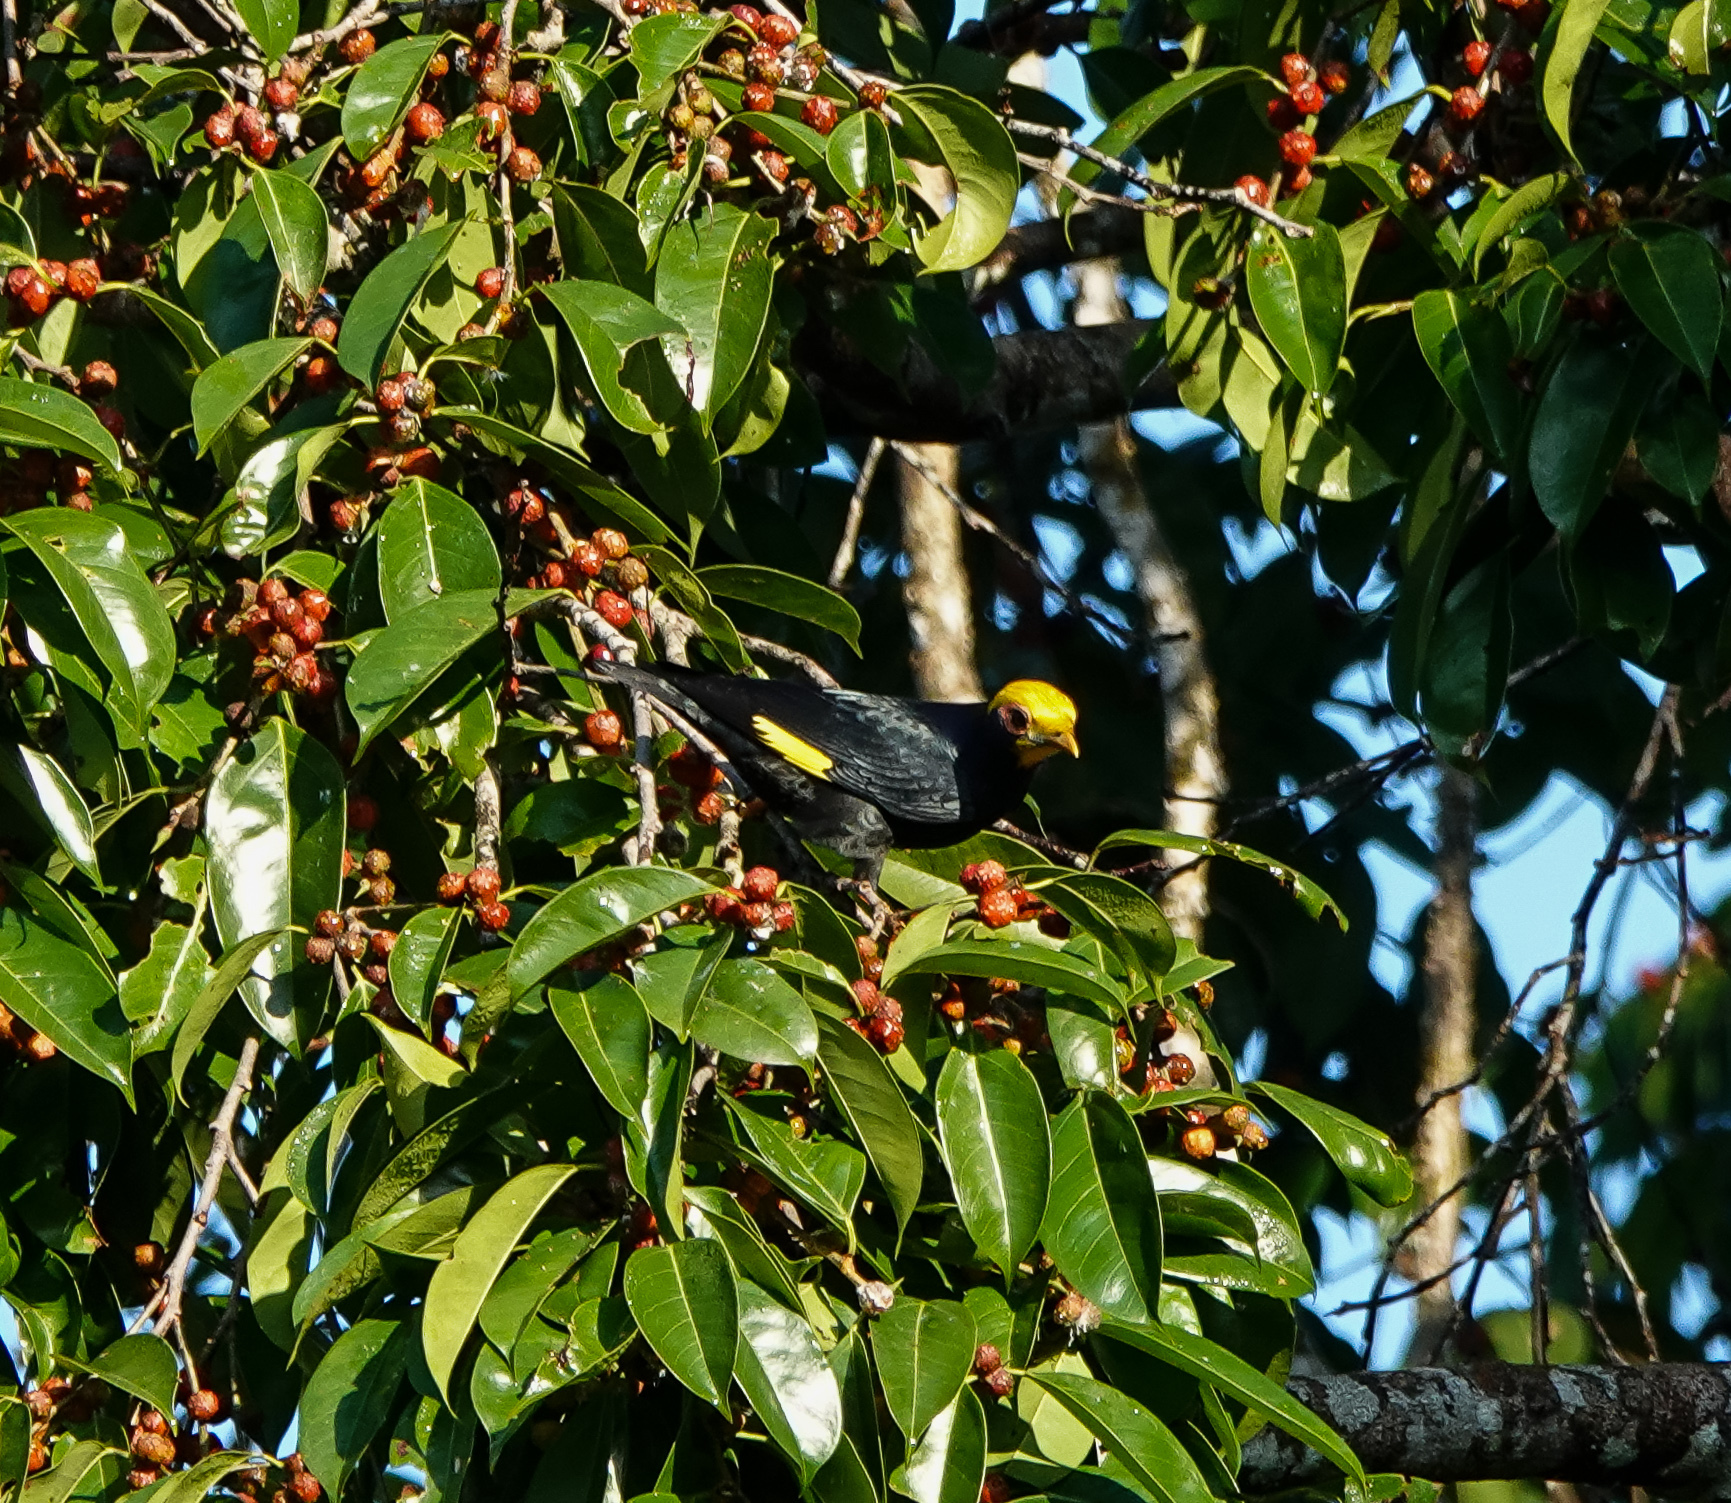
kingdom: Animalia
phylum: Chordata
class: Aves
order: Passeriformes
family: Sturnidae
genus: Ampeliceps
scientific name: Ampeliceps coronatus
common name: Golden-crested myna
